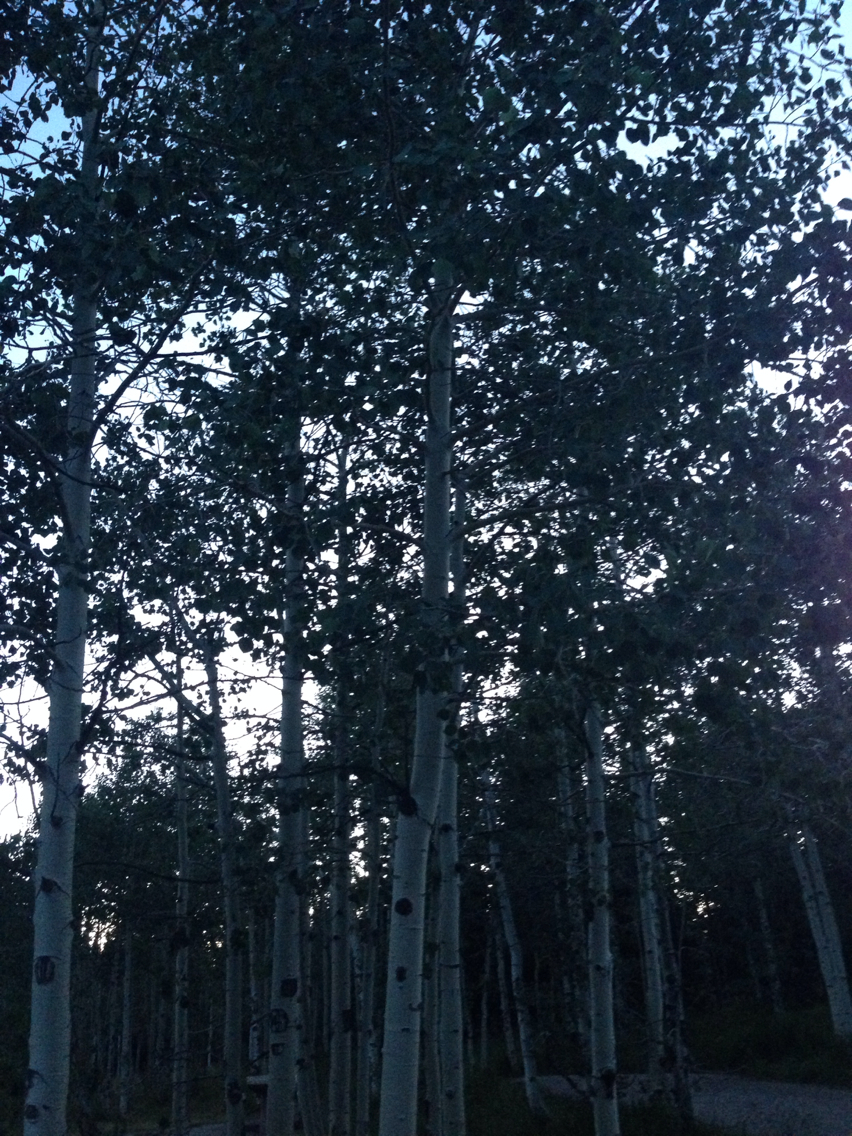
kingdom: Plantae
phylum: Tracheophyta
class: Magnoliopsida
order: Malpighiales
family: Salicaceae
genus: Populus
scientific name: Populus tremuloides
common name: Quaking aspen
